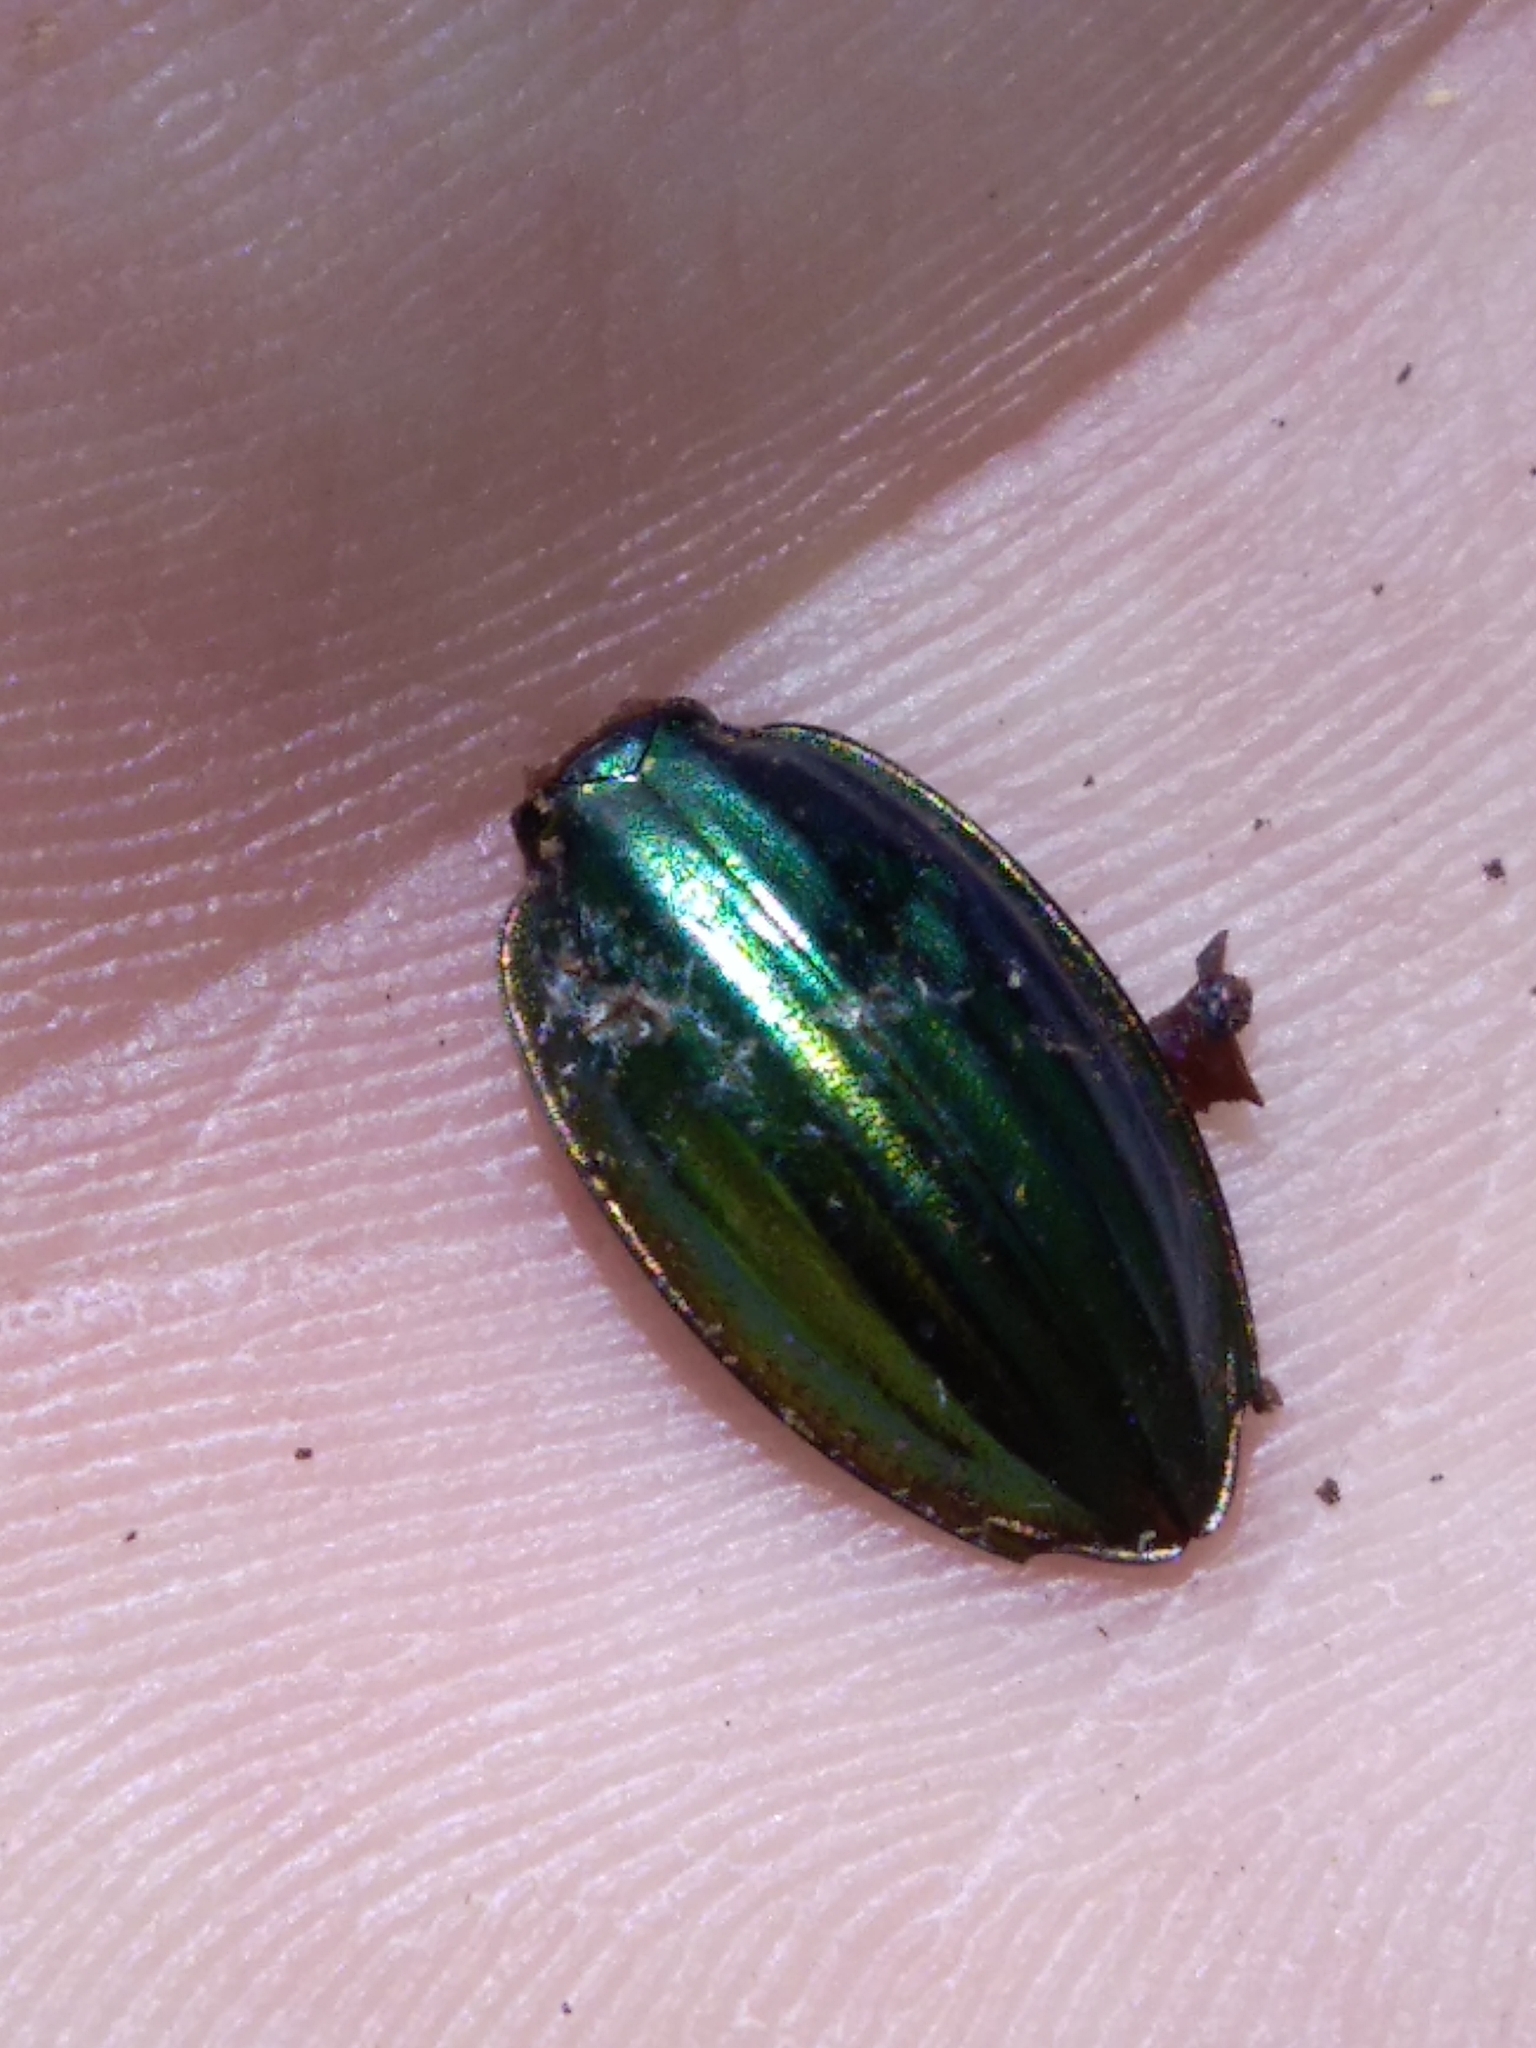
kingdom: Animalia
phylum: Arthropoda
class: Insecta
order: Coleoptera
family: Carabidae
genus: Carabus
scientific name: Carabus auratus
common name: Golden ground beetle
